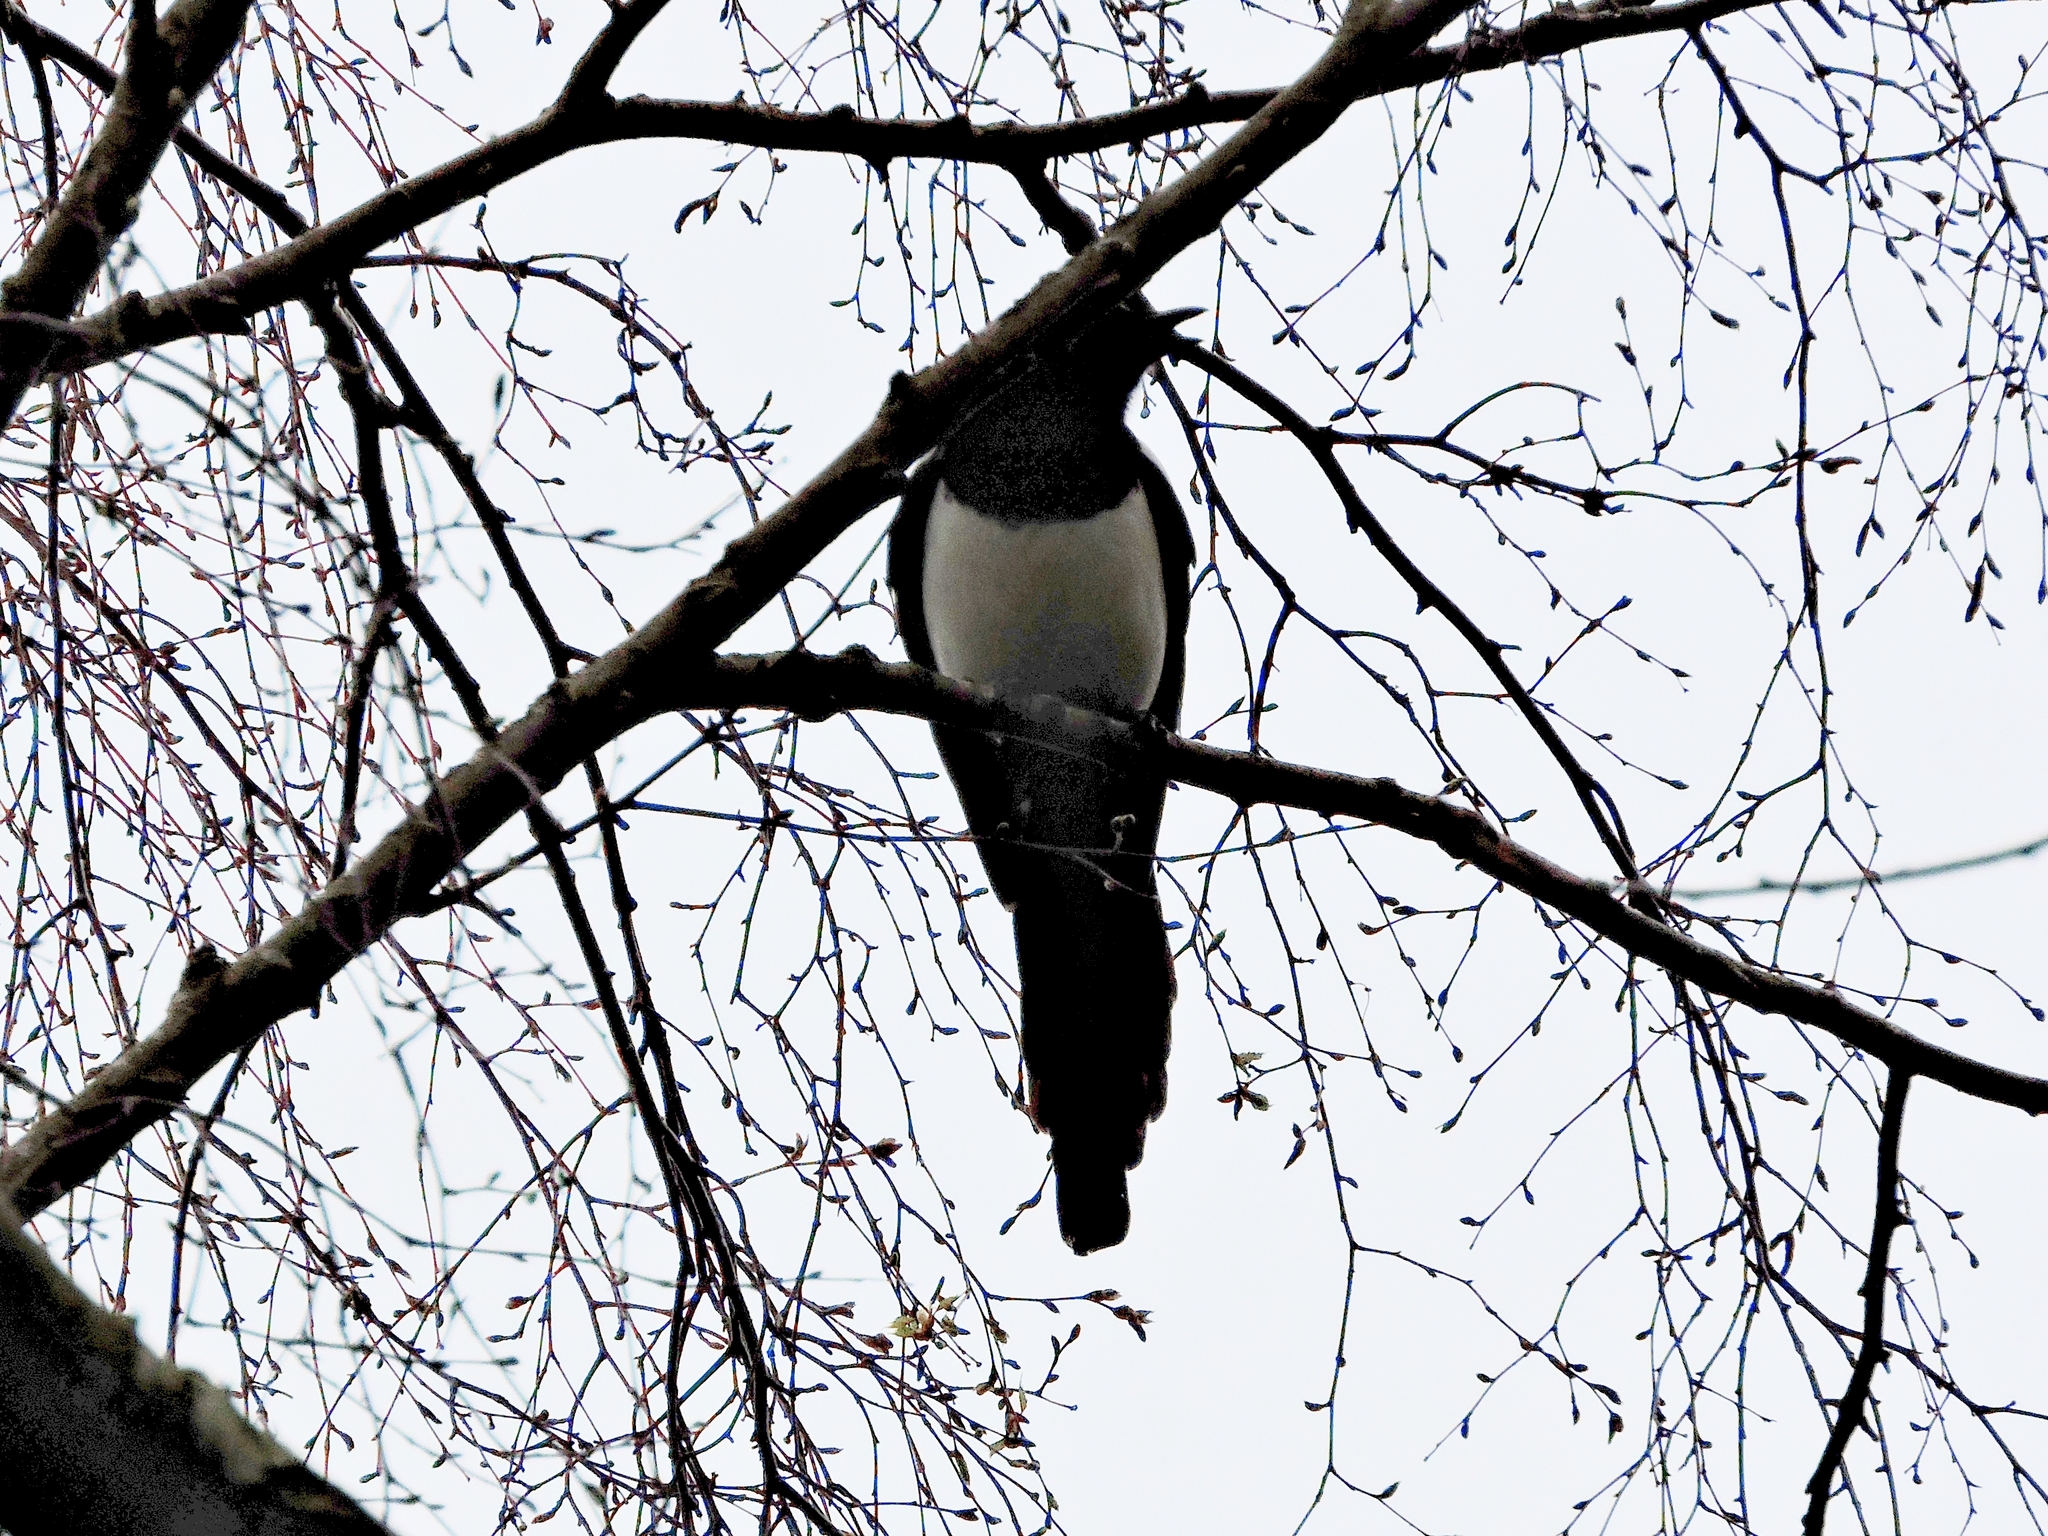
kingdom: Animalia
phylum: Chordata
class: Aves
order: Passeriformes
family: Corvidae
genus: Pica
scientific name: Pica pica
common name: Eurasian magpie
